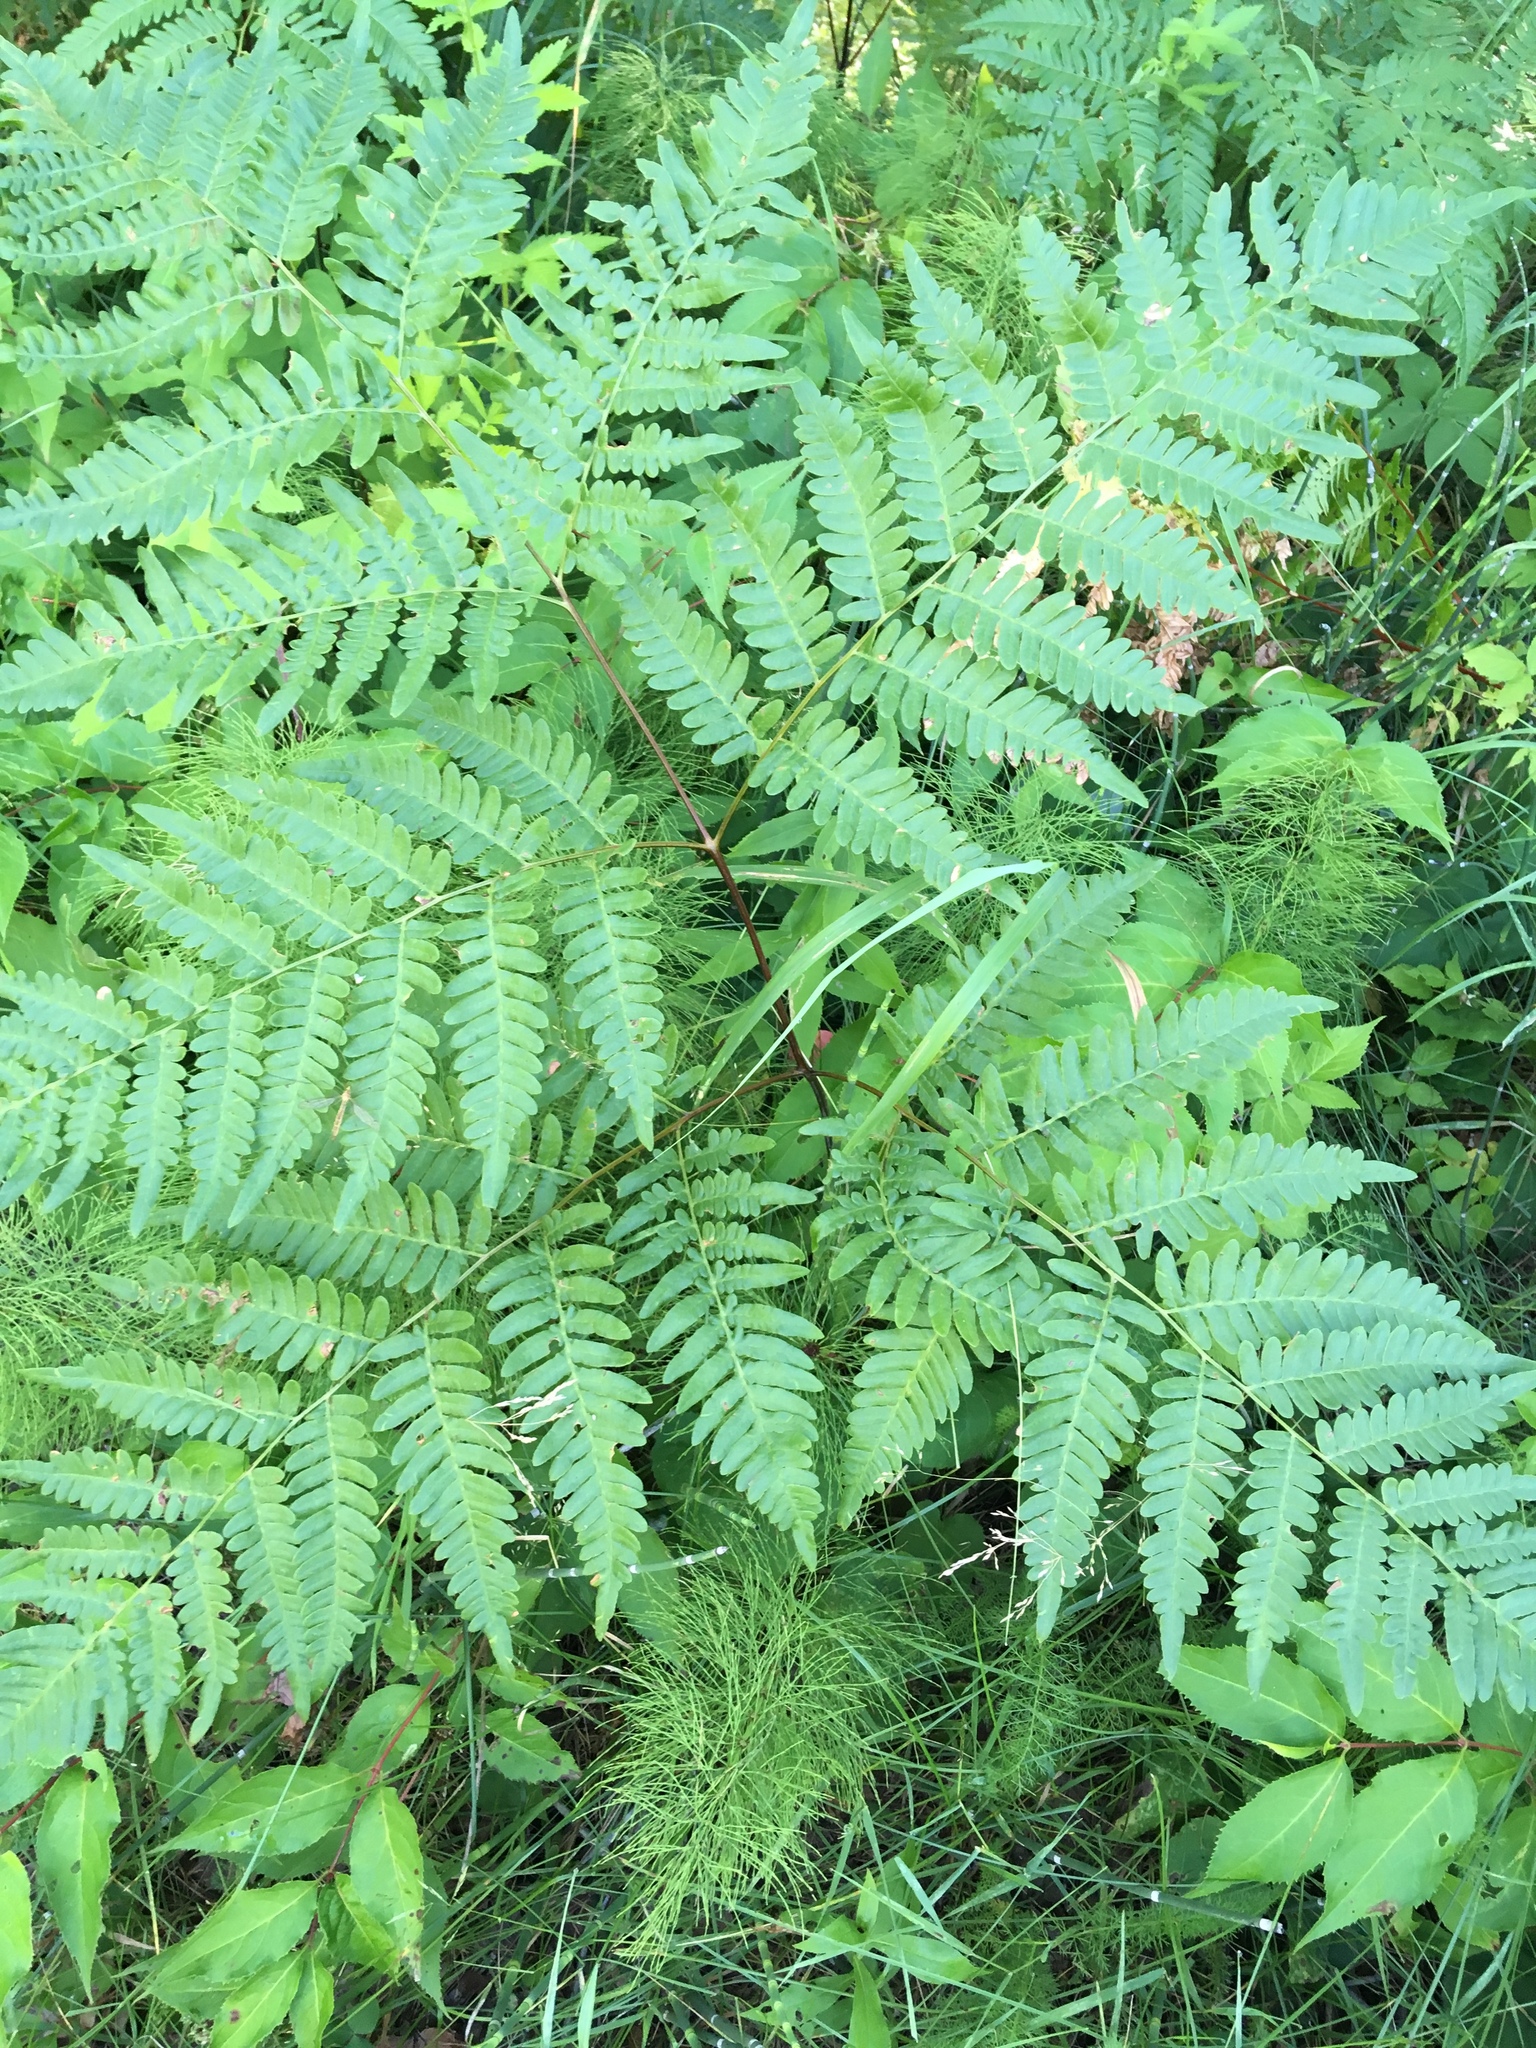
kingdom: Plantae
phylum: Tracheophyta
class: Polypodiopsida
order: Polypodiales
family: Dennstaedtiaceae
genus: Pteridium
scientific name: Pteridium aquilinum
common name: Bracken
